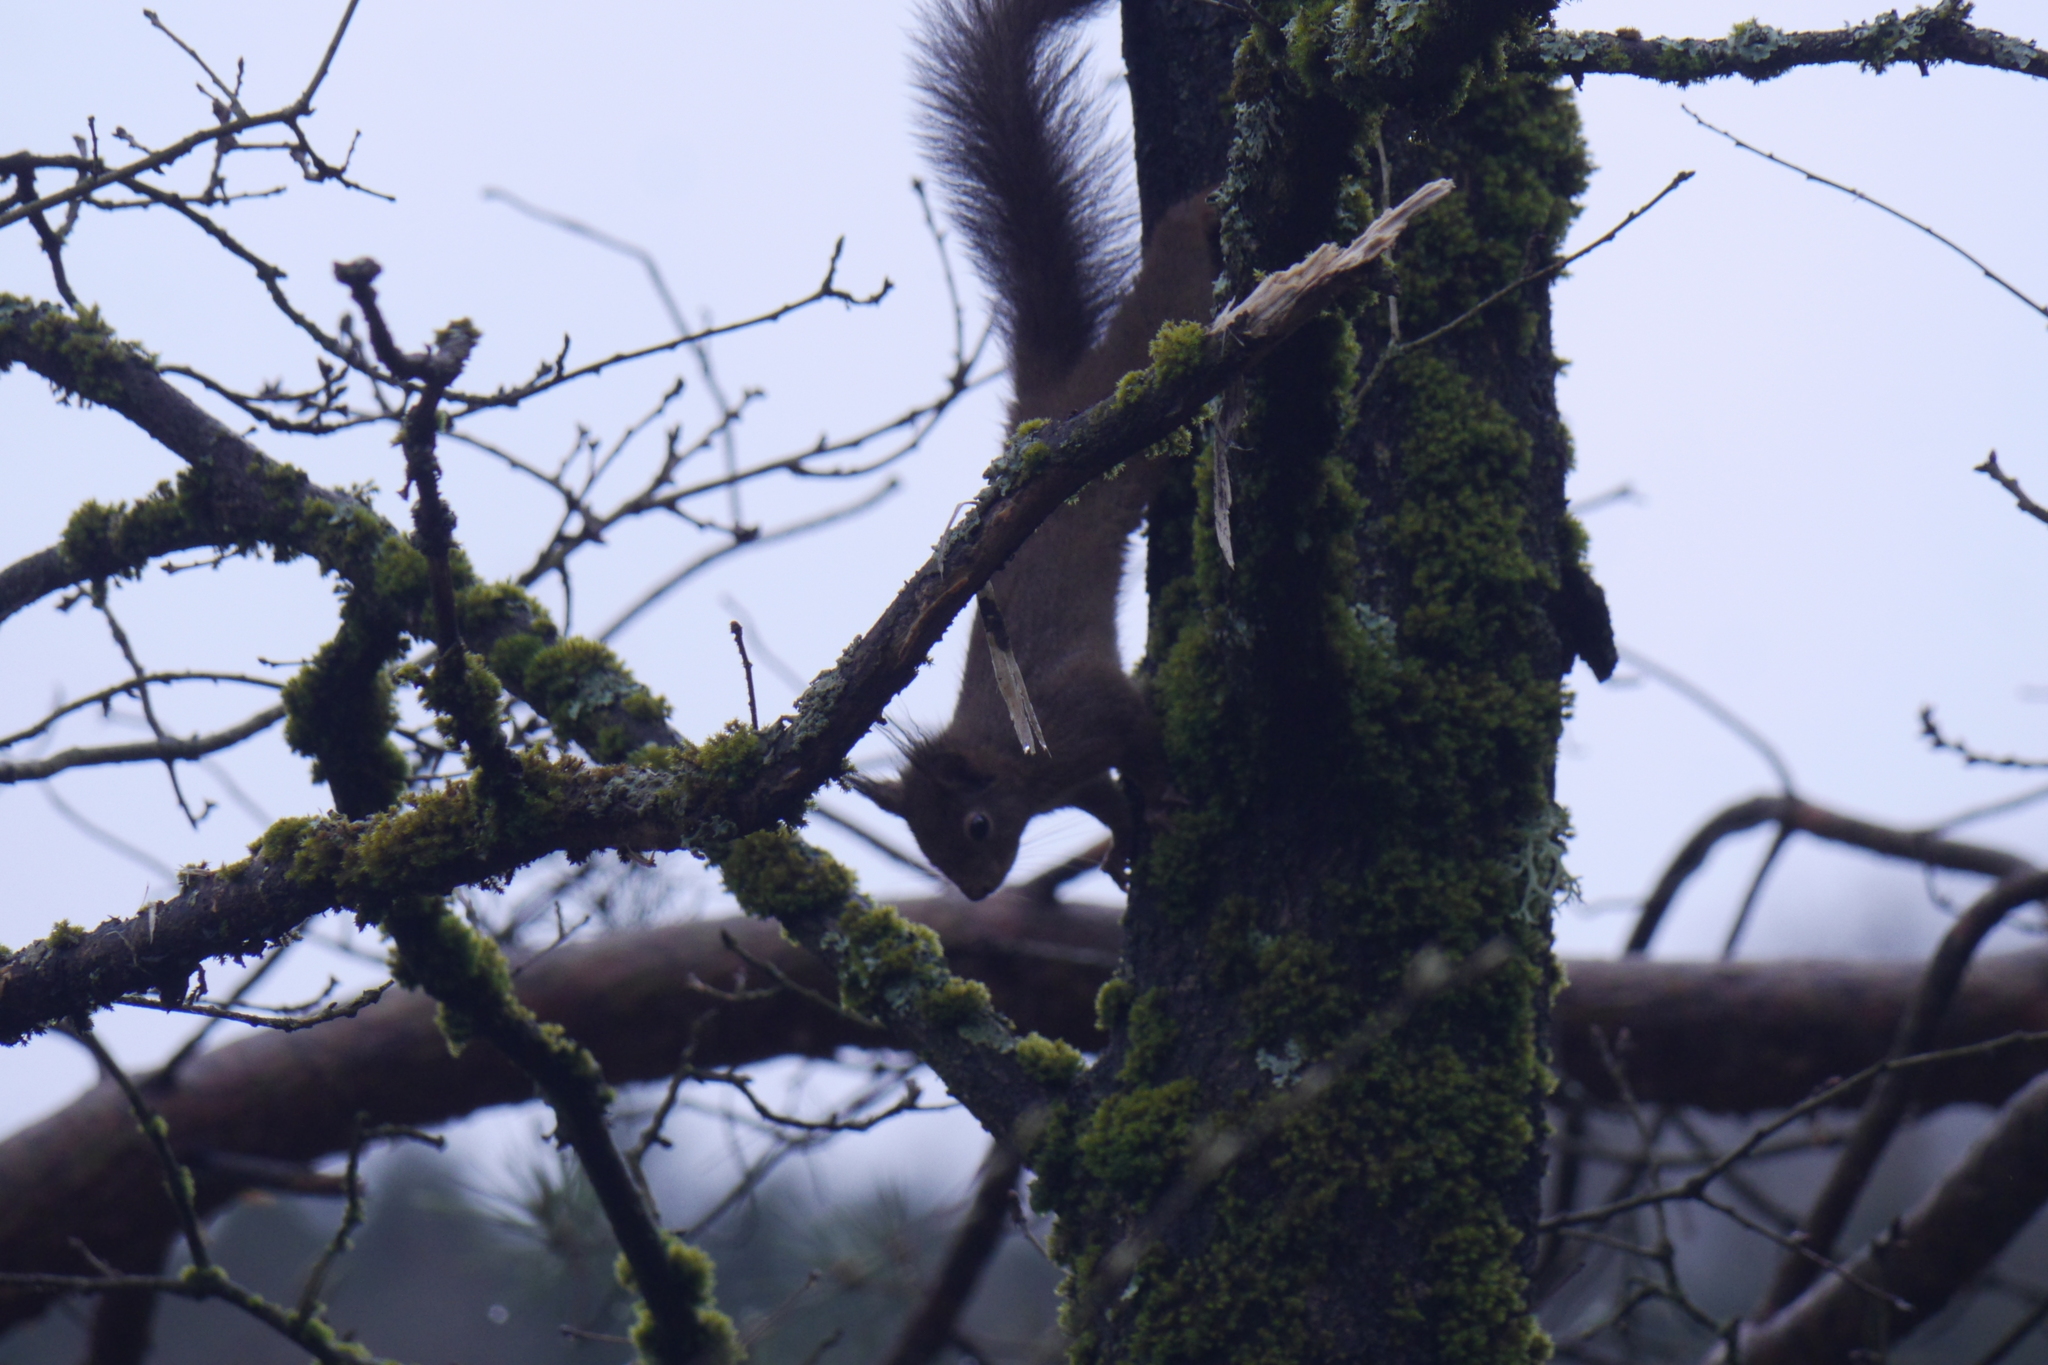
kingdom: Animalia
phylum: Chordata
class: Mammalia
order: Rodentia
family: Sciuridae
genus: Sciurus
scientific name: Sciurus vulgaris
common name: Eurasian red squirrel
